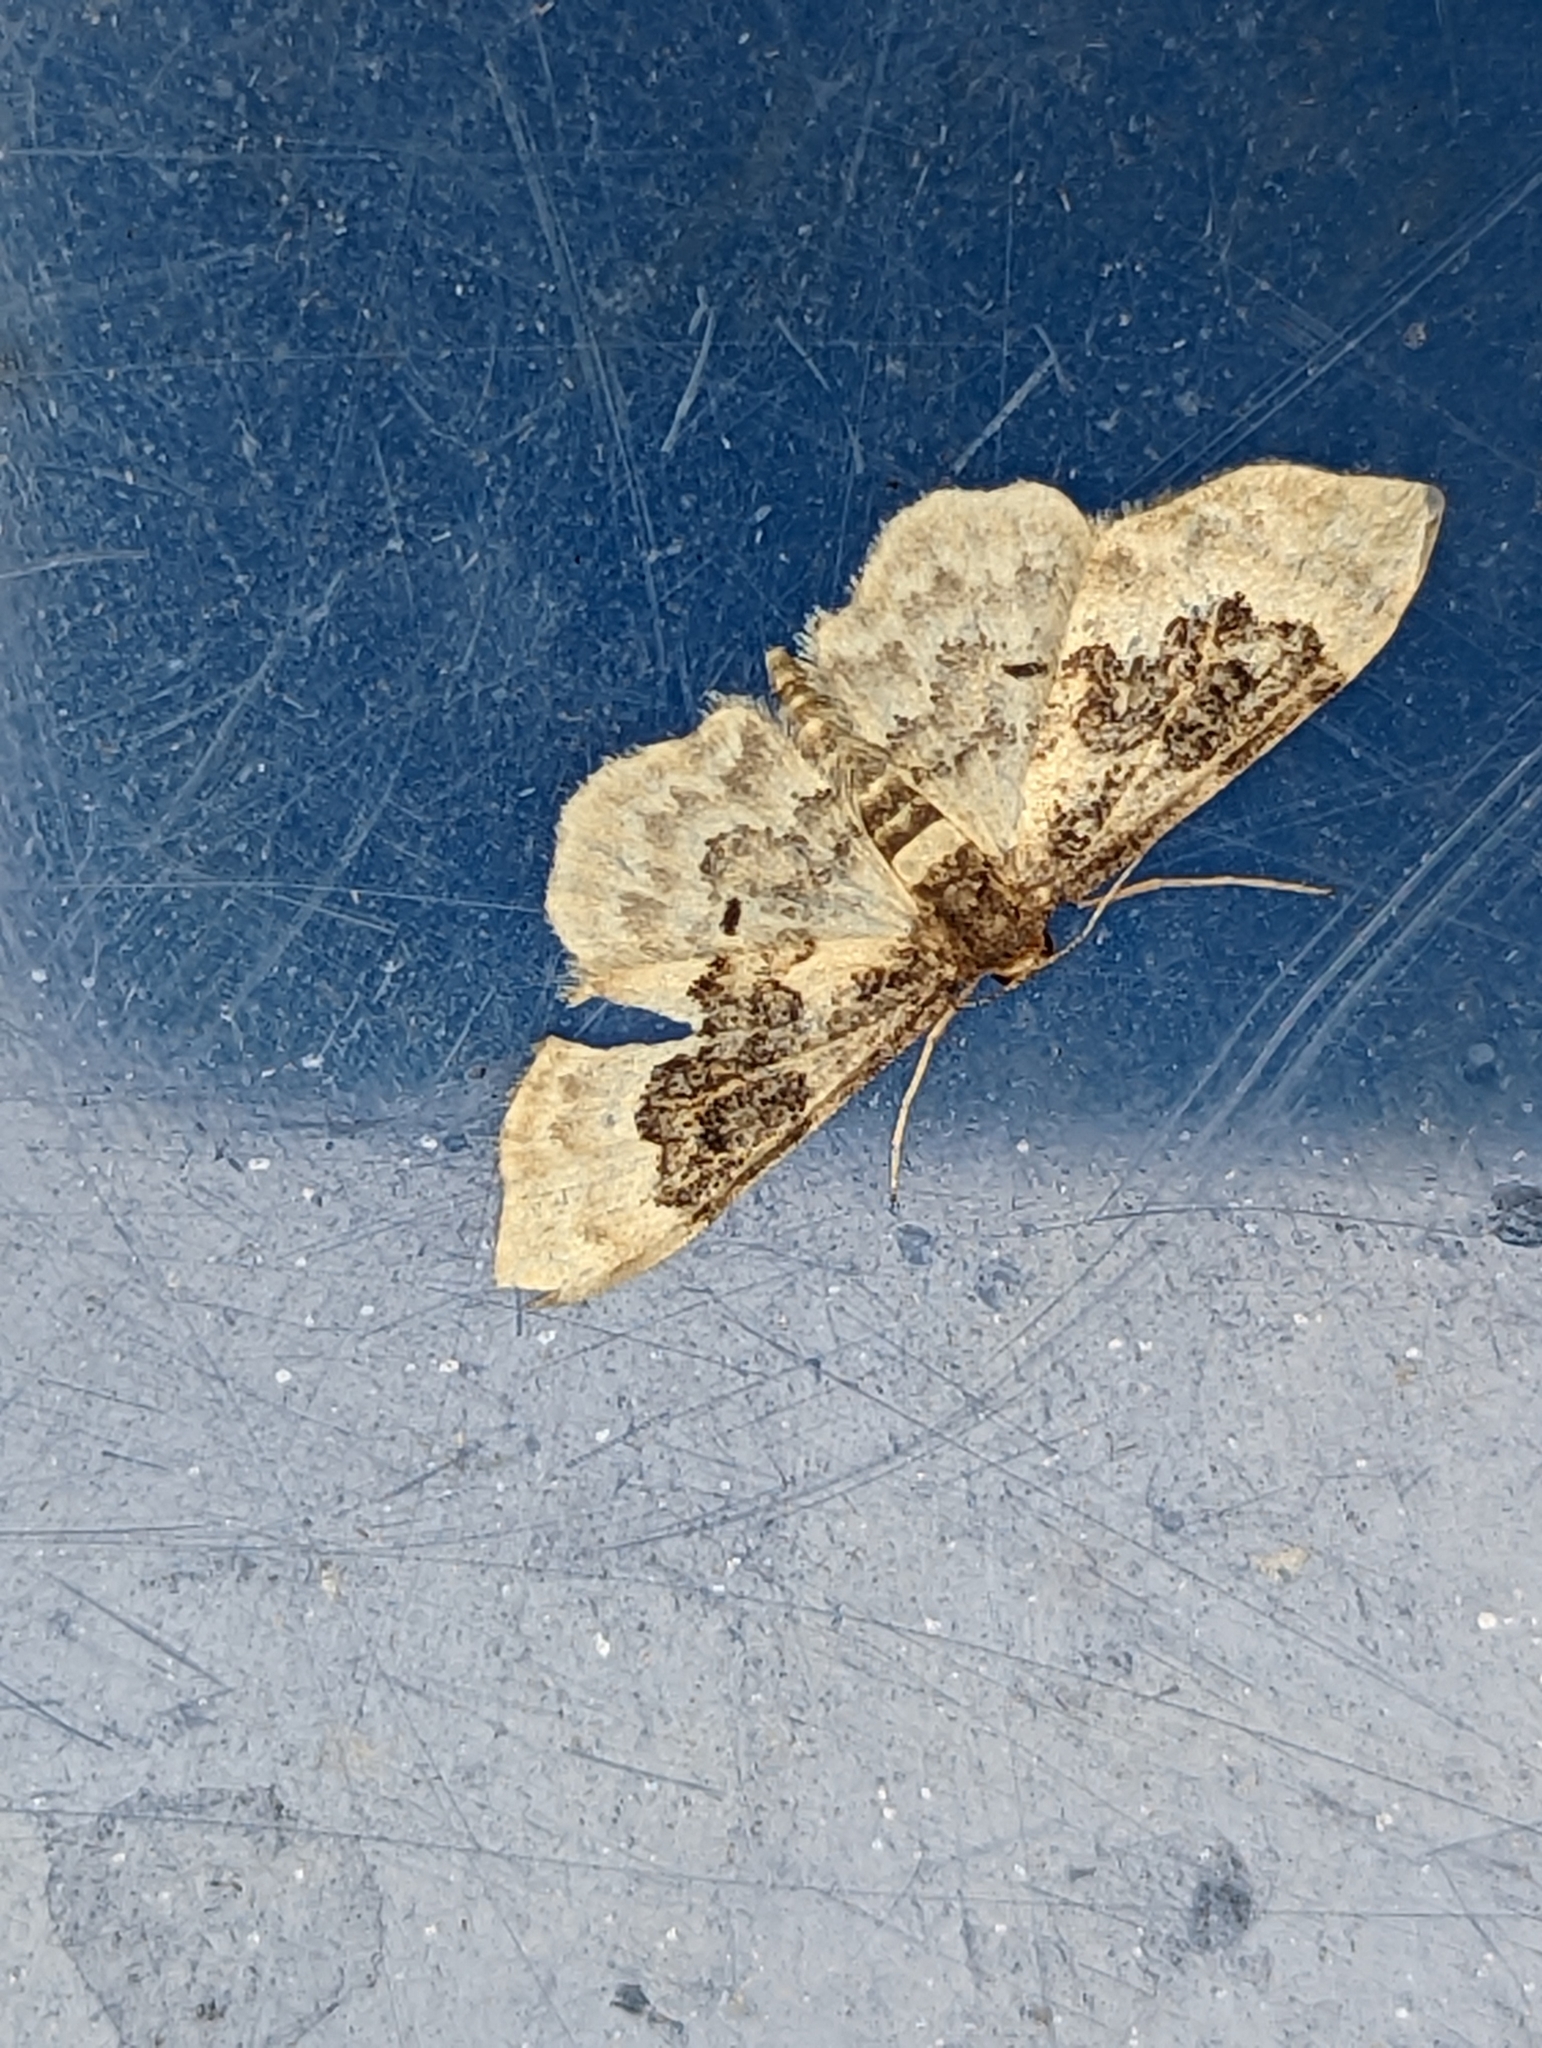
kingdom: Animalia
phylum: Arthropoda
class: Insecta
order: Lepidoptera
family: Geometridae
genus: Idaea
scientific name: Idaea rusticata
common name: Least carpet
